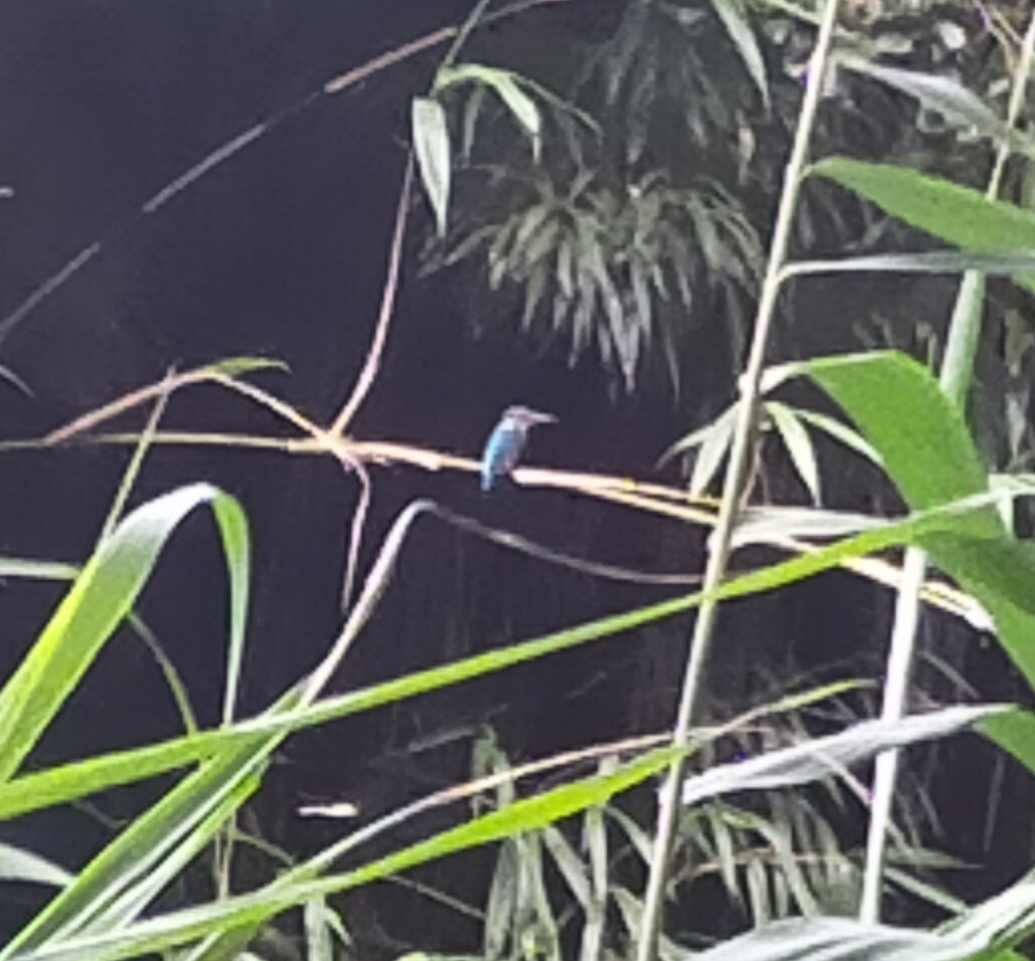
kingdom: Animalia
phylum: Chordata
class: Aves
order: Coraciiformes
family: Alcedinidae
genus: Alcedo
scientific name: Alcedo atthis
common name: Common kingfisher
